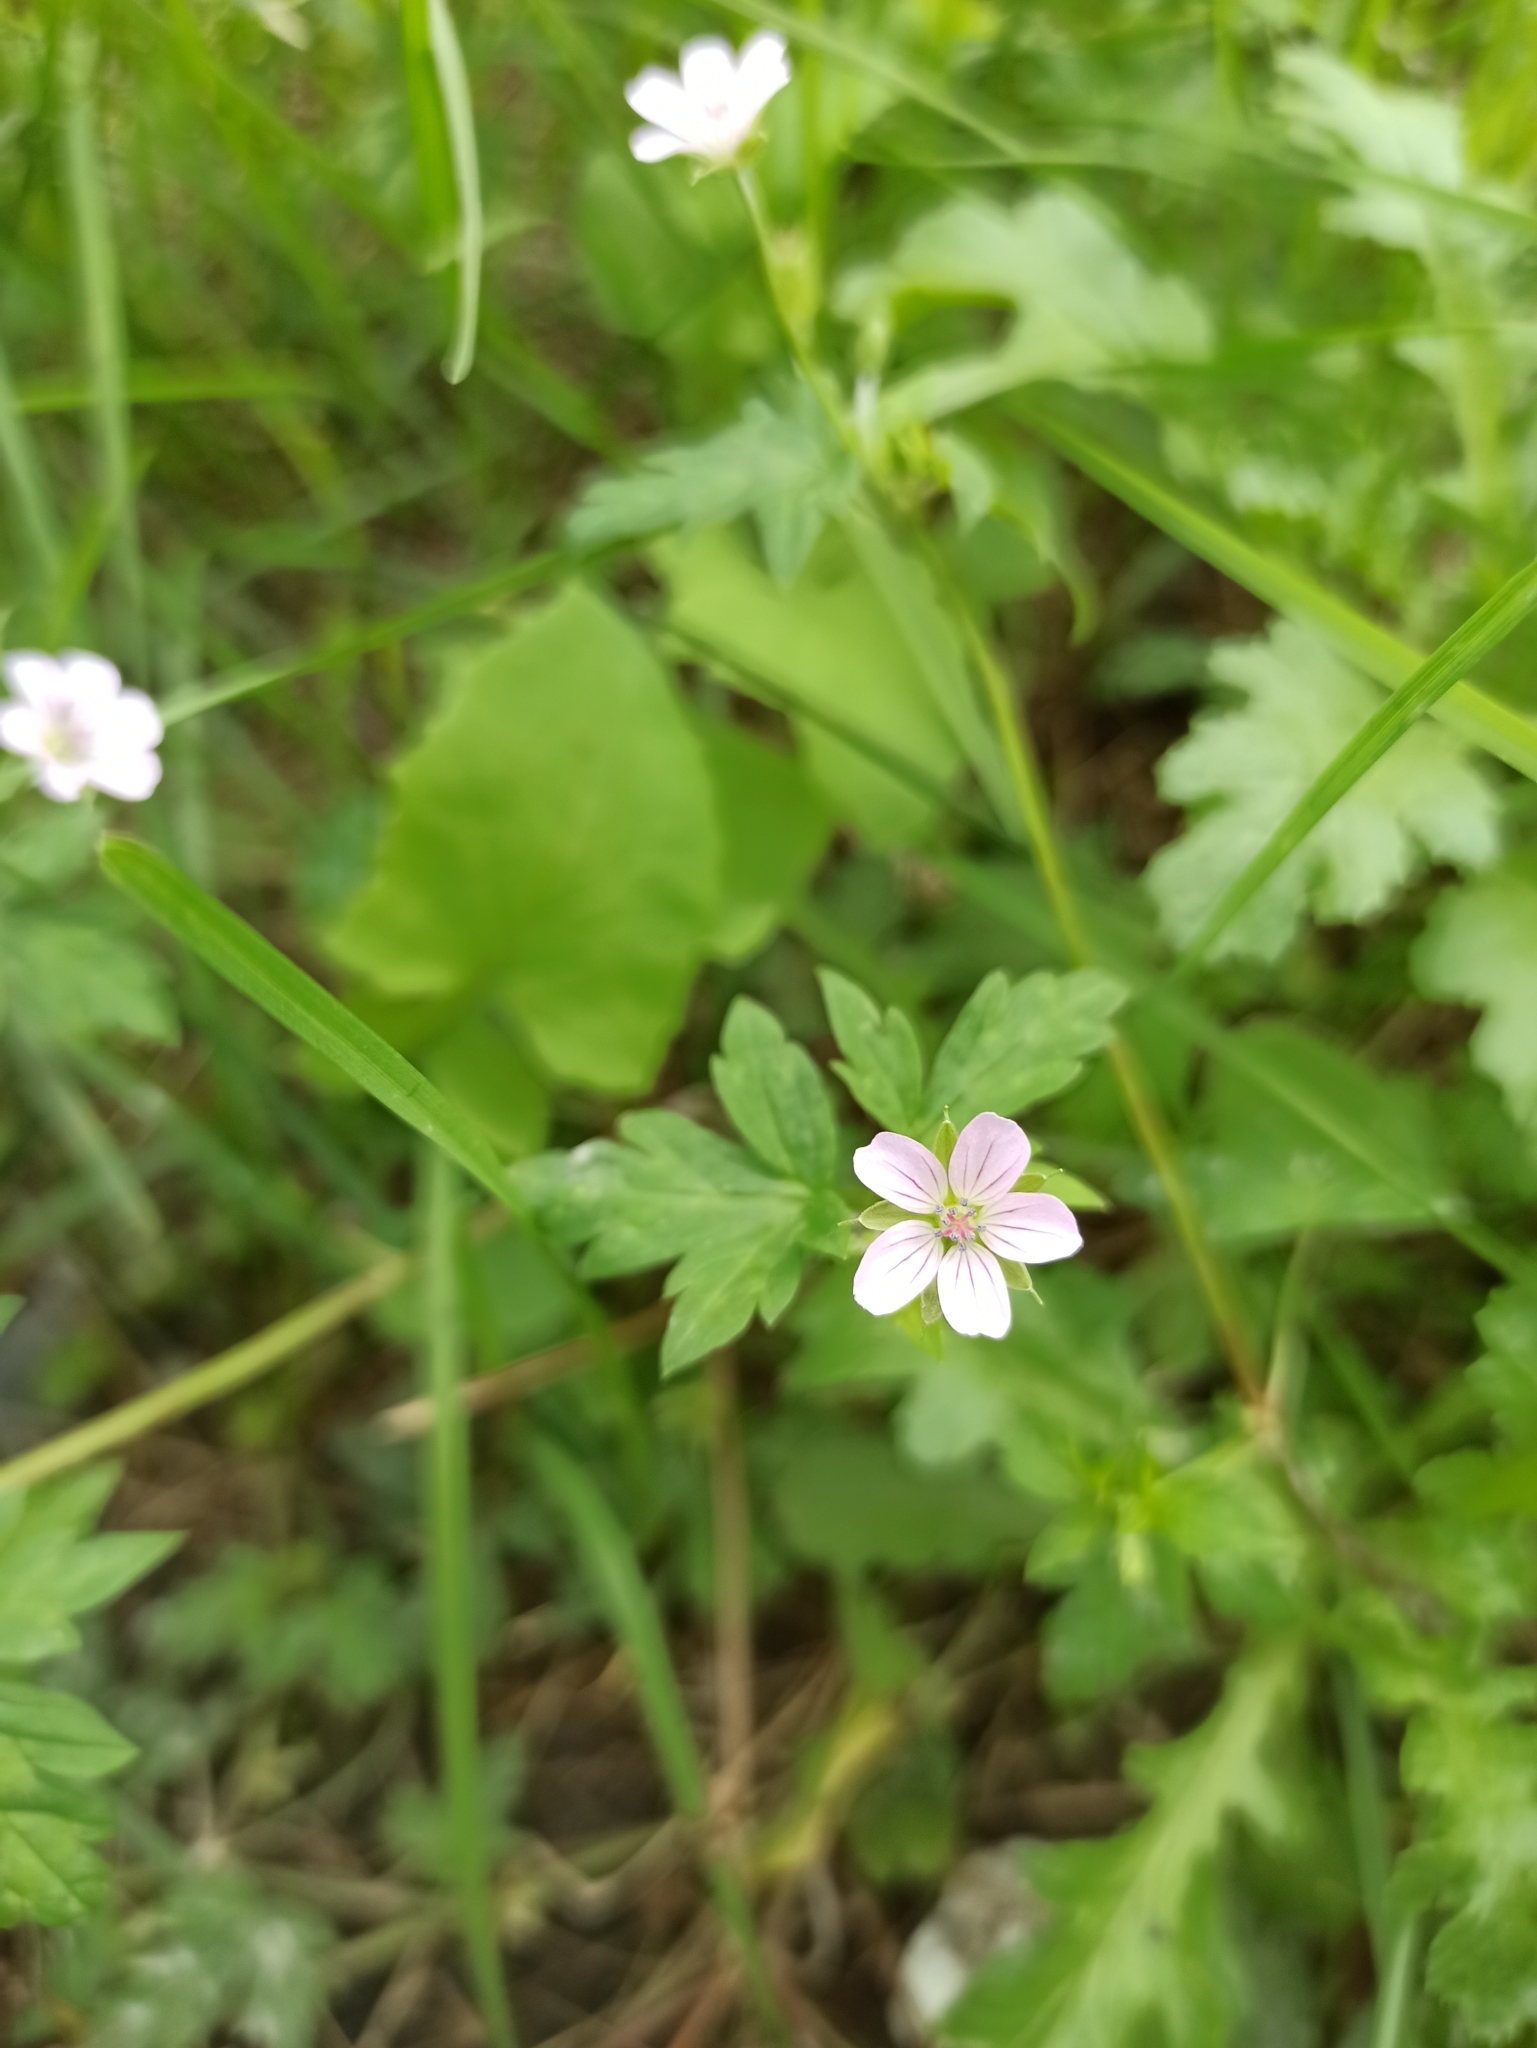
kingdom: Plantae
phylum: Tracheophyta
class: Magnoliopsida
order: Geraniales
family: Geraniaceae
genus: Geranium
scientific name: Geranium sibiricum
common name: Siberian crane's-bill
